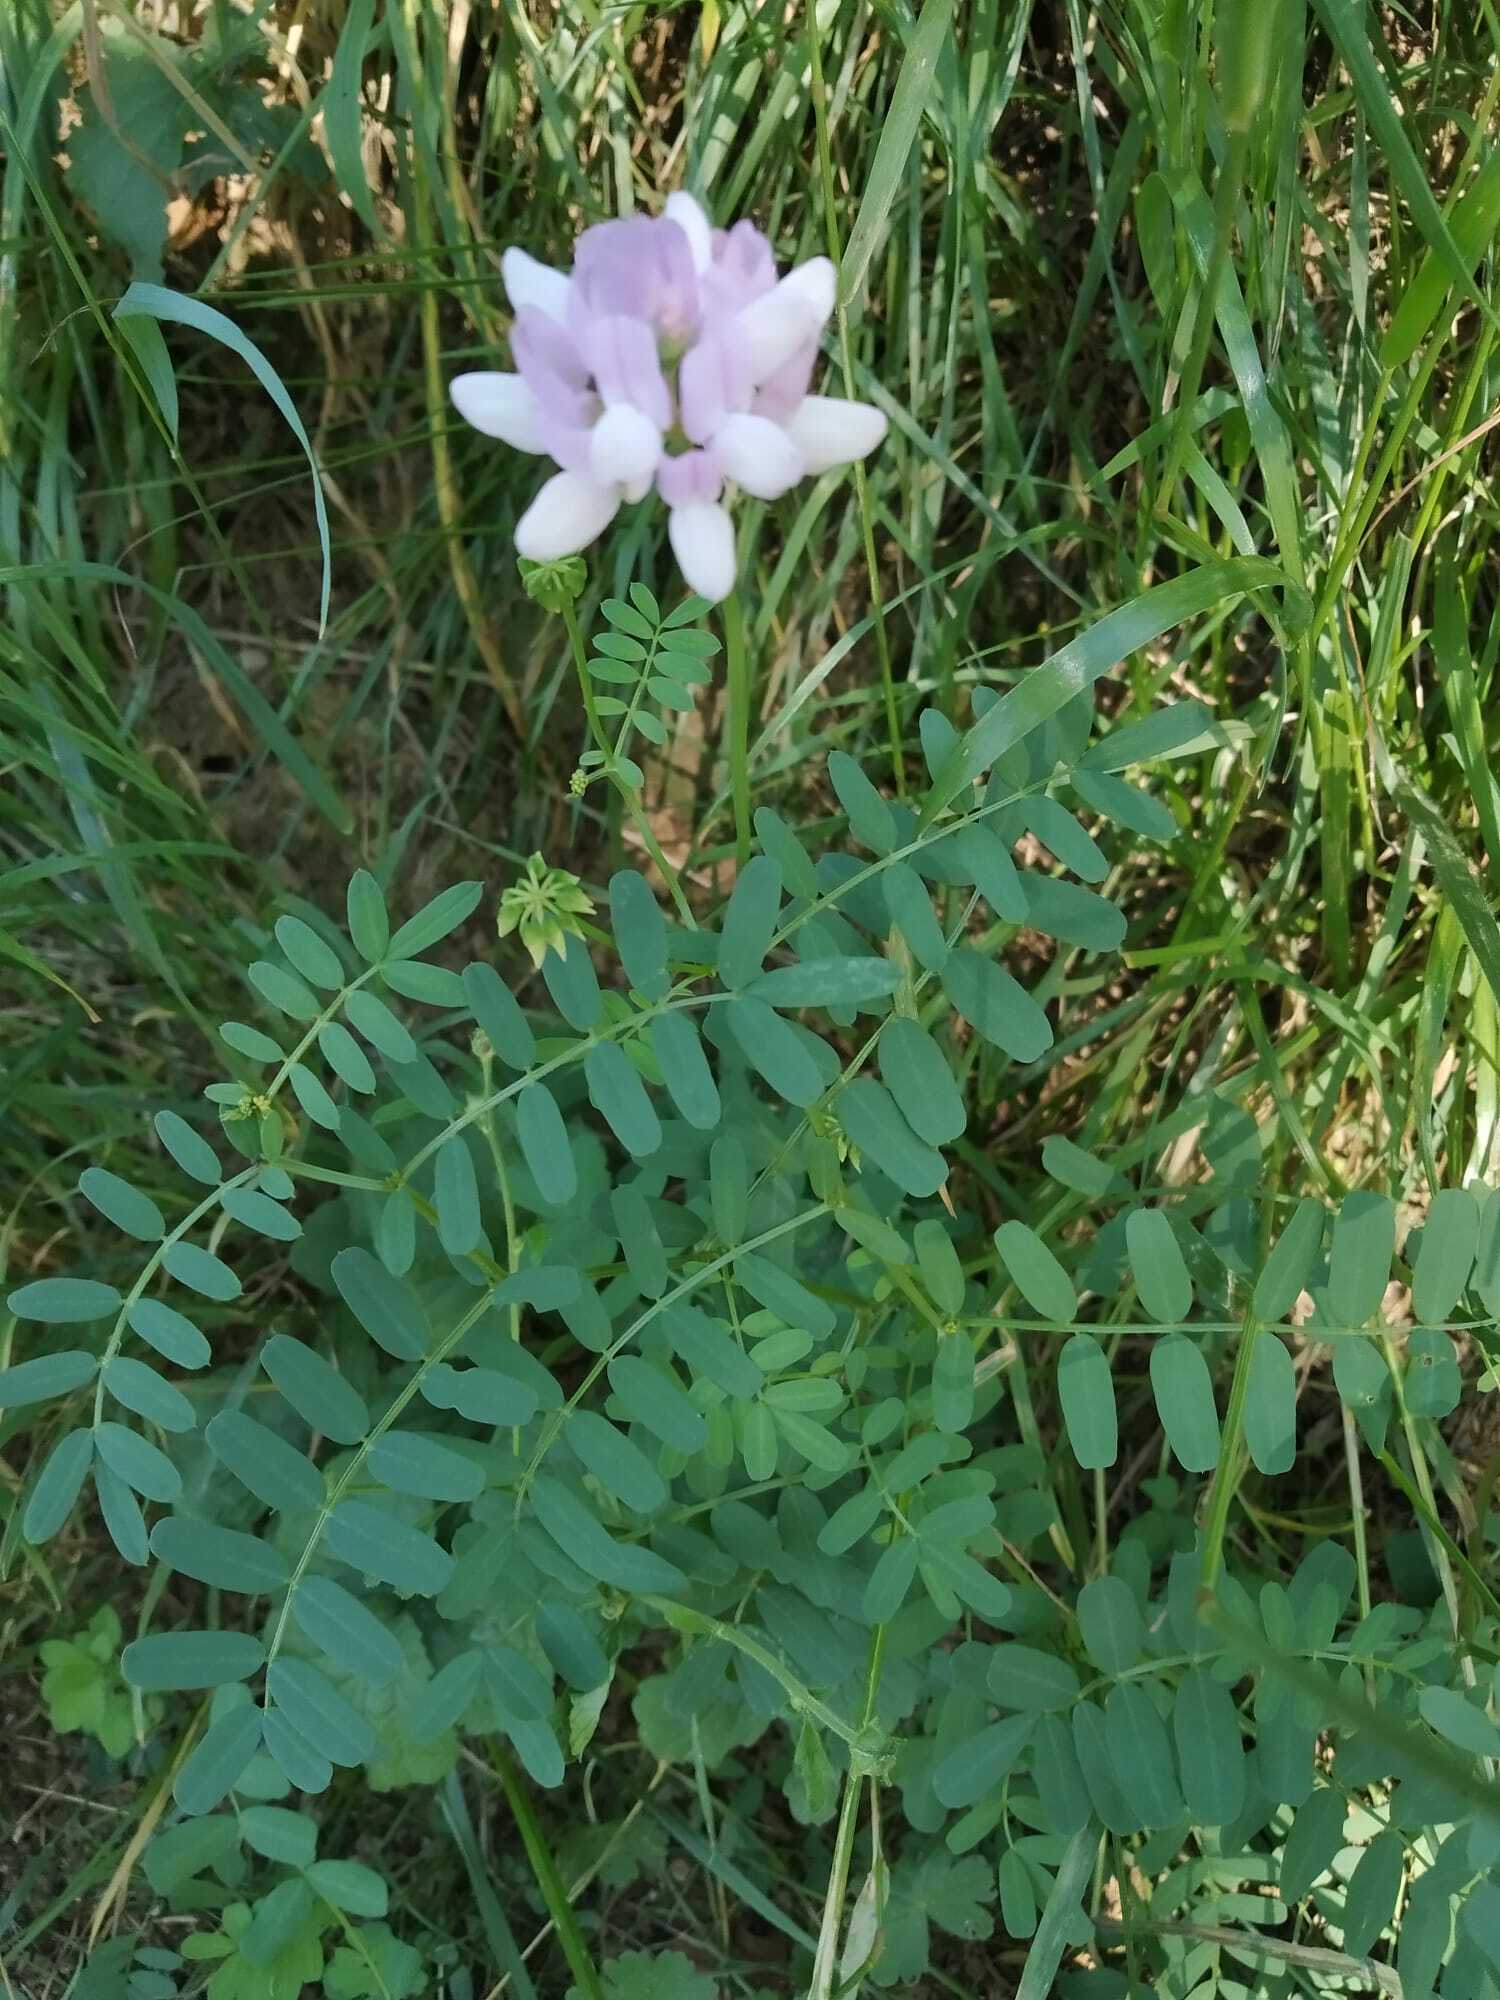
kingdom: Plantae
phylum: Tracheophyta
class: Magnoliopsida
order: Fabales
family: Fabaceae
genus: Coronilla
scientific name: Coronilla varia
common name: Crownvetch
